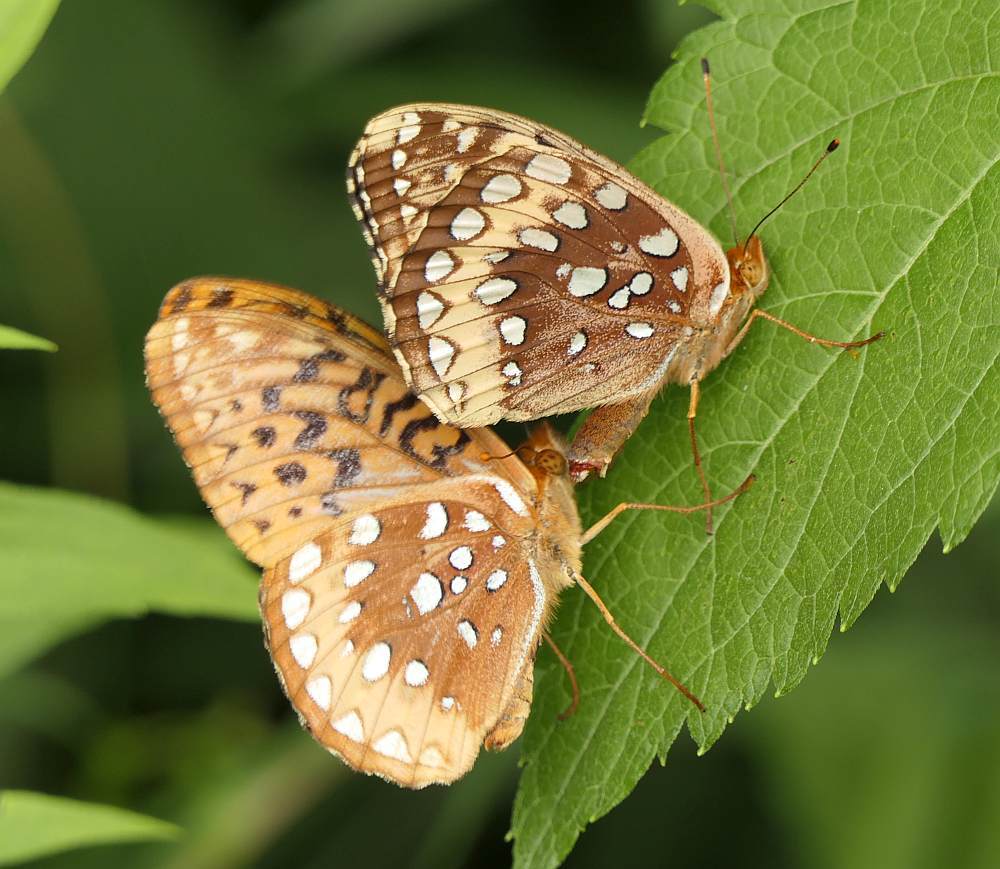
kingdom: Animalia
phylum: Arthropoda
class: Insecta
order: Lepidoptera
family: Nymphalidae
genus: Speyeria
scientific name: Speyeria cybele
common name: Great spangled fritillary
